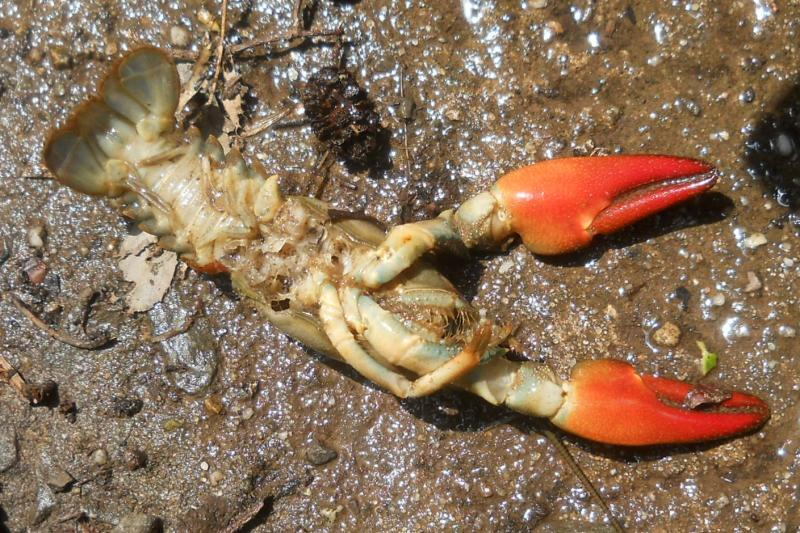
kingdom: Animalia
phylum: Arthropoda
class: Malacostraca
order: Decapoda
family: Astacidae
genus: Pacifastacus
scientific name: Pacifastacus leniusculus
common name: Signal crayfish
